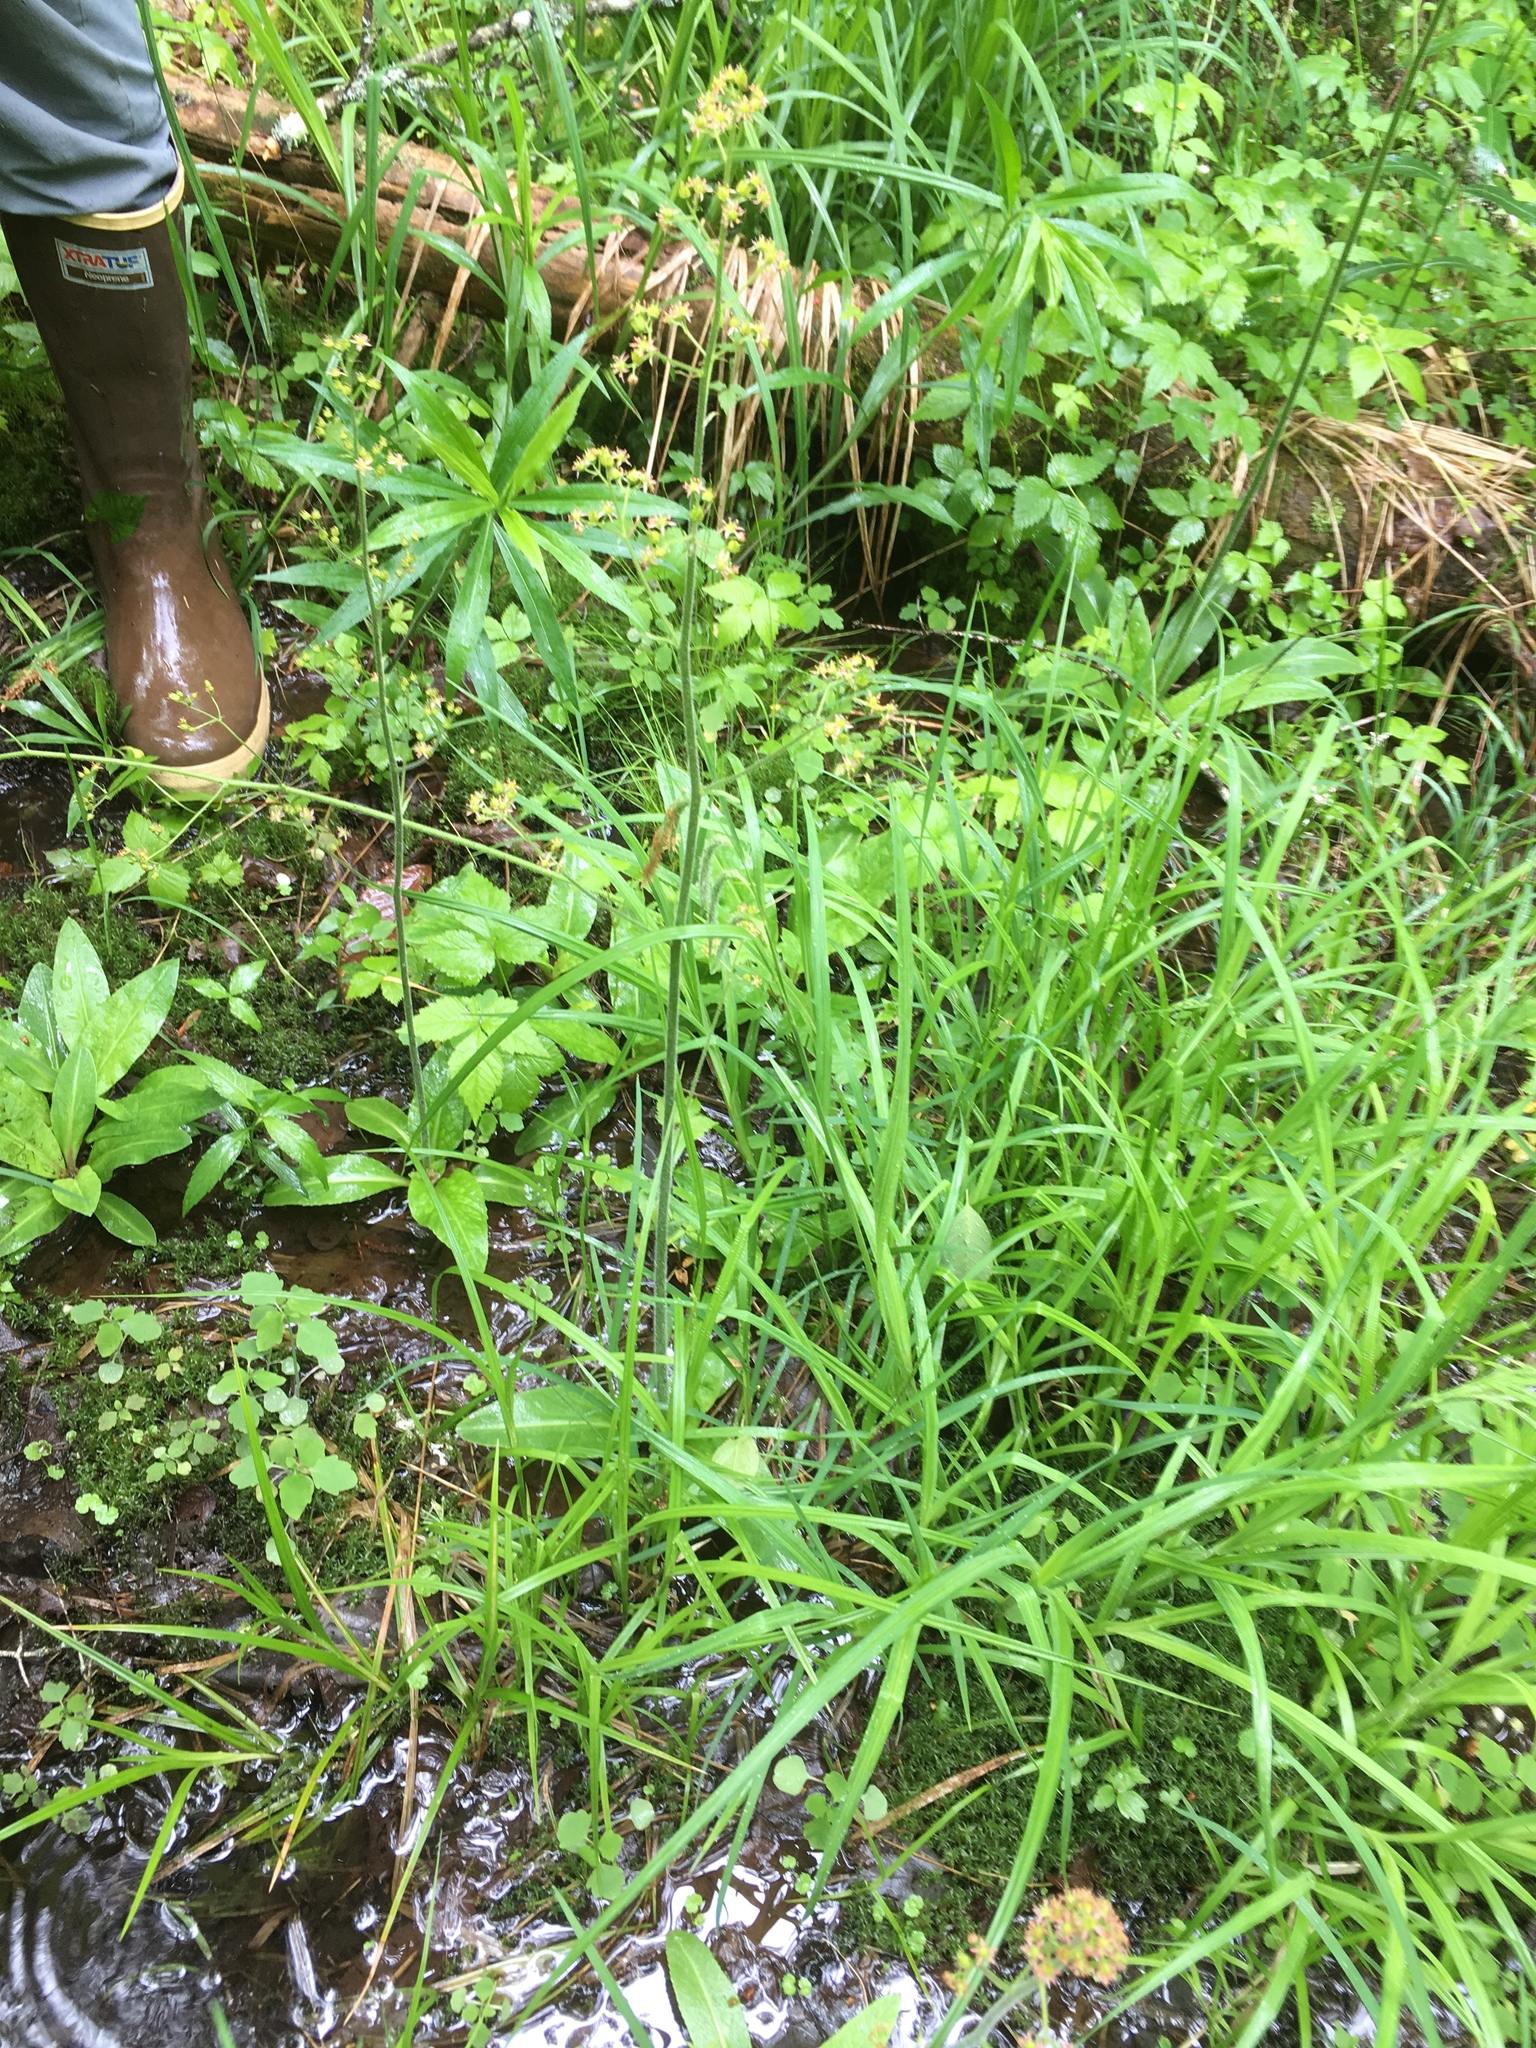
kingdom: Plantae
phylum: Tracheophyta
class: Magnoliopsida
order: Saxifragales
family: Saxifragaceae
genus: Micranthes
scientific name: Micranthes pensylvanica
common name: Marsh saxifrage
